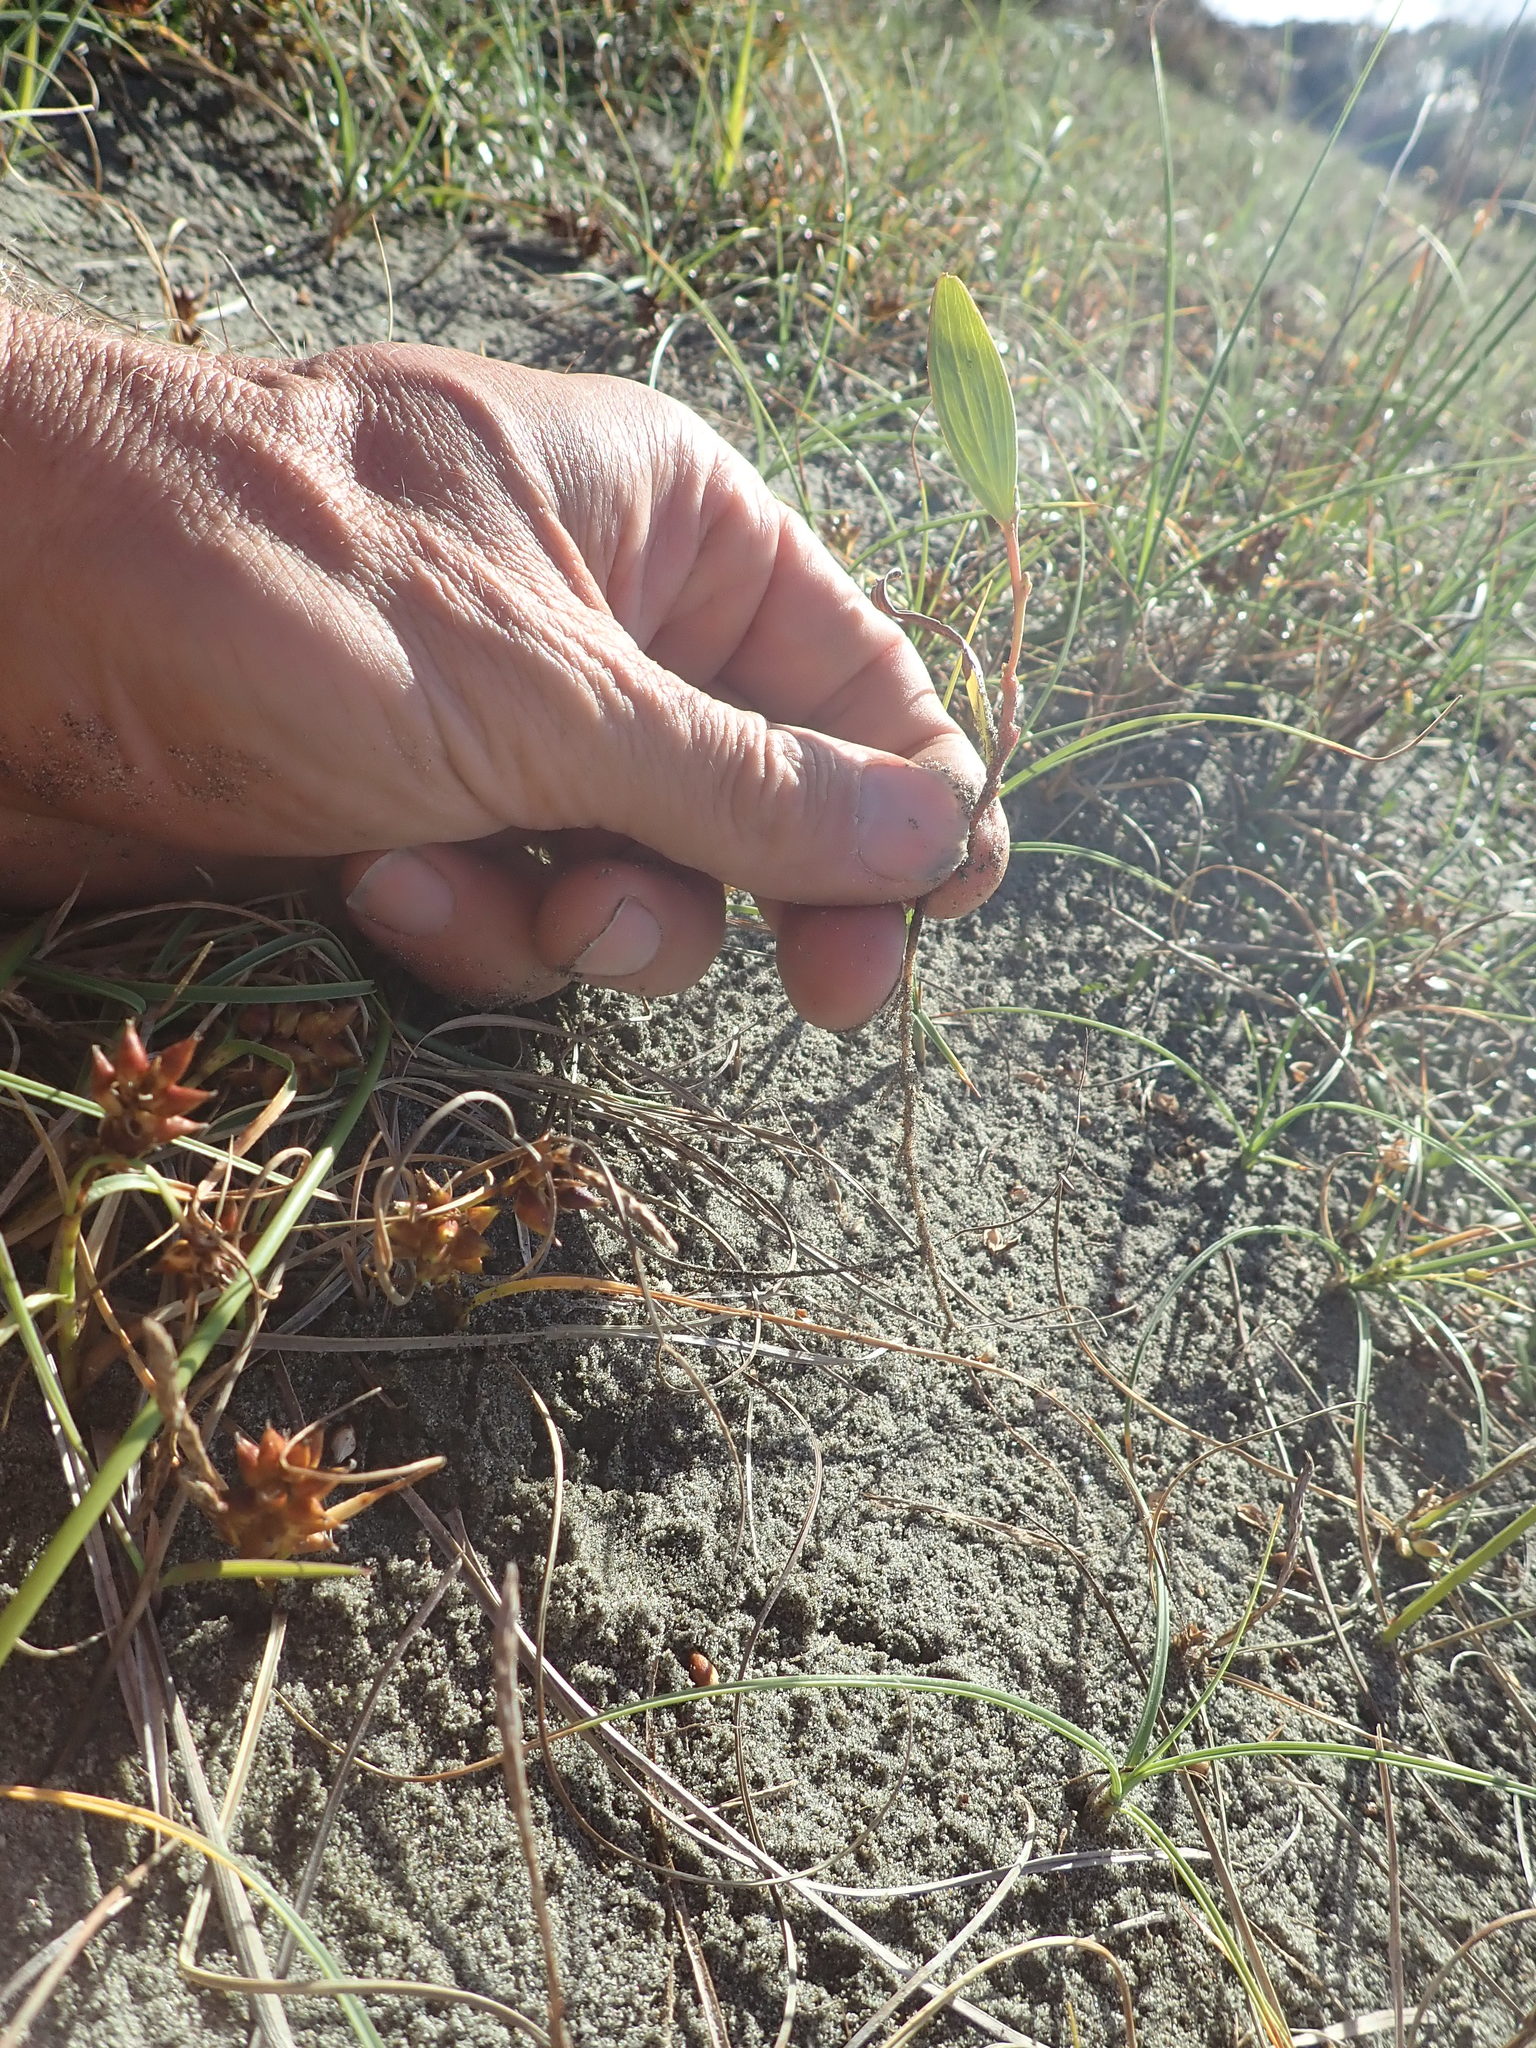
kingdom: Plantae
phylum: Tracheophyta
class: Magnoliopsida
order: Fabales
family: Fabaceae
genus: Acacia
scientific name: Acacia longifolia
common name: Sydney golden wattle
